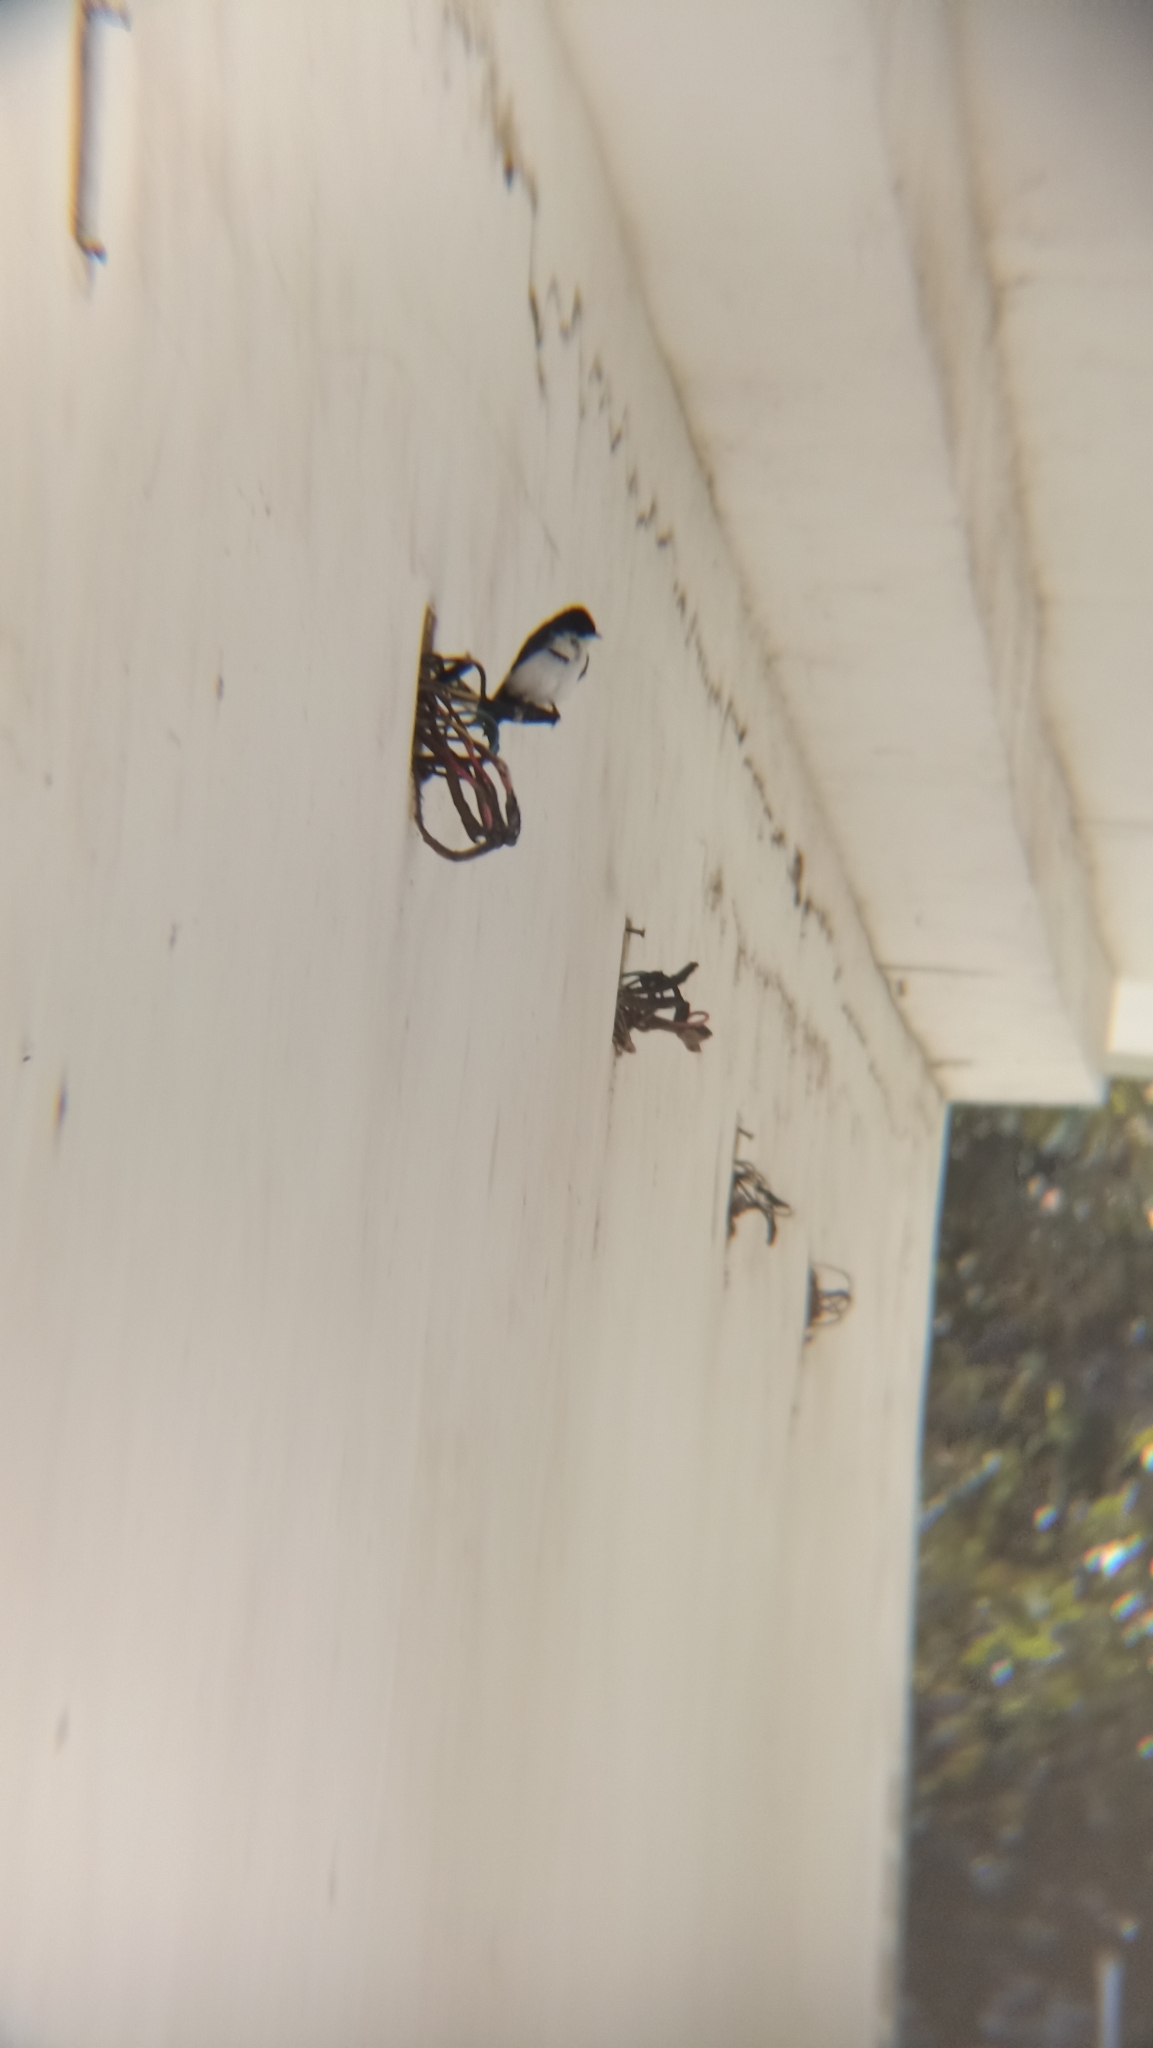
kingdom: Animalia
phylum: Chordata
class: Aves
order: Passeriformes
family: Hirundinidae
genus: Notiochelidon
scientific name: Notiochelidon cyanoleuca
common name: Blue-and-white swallow
